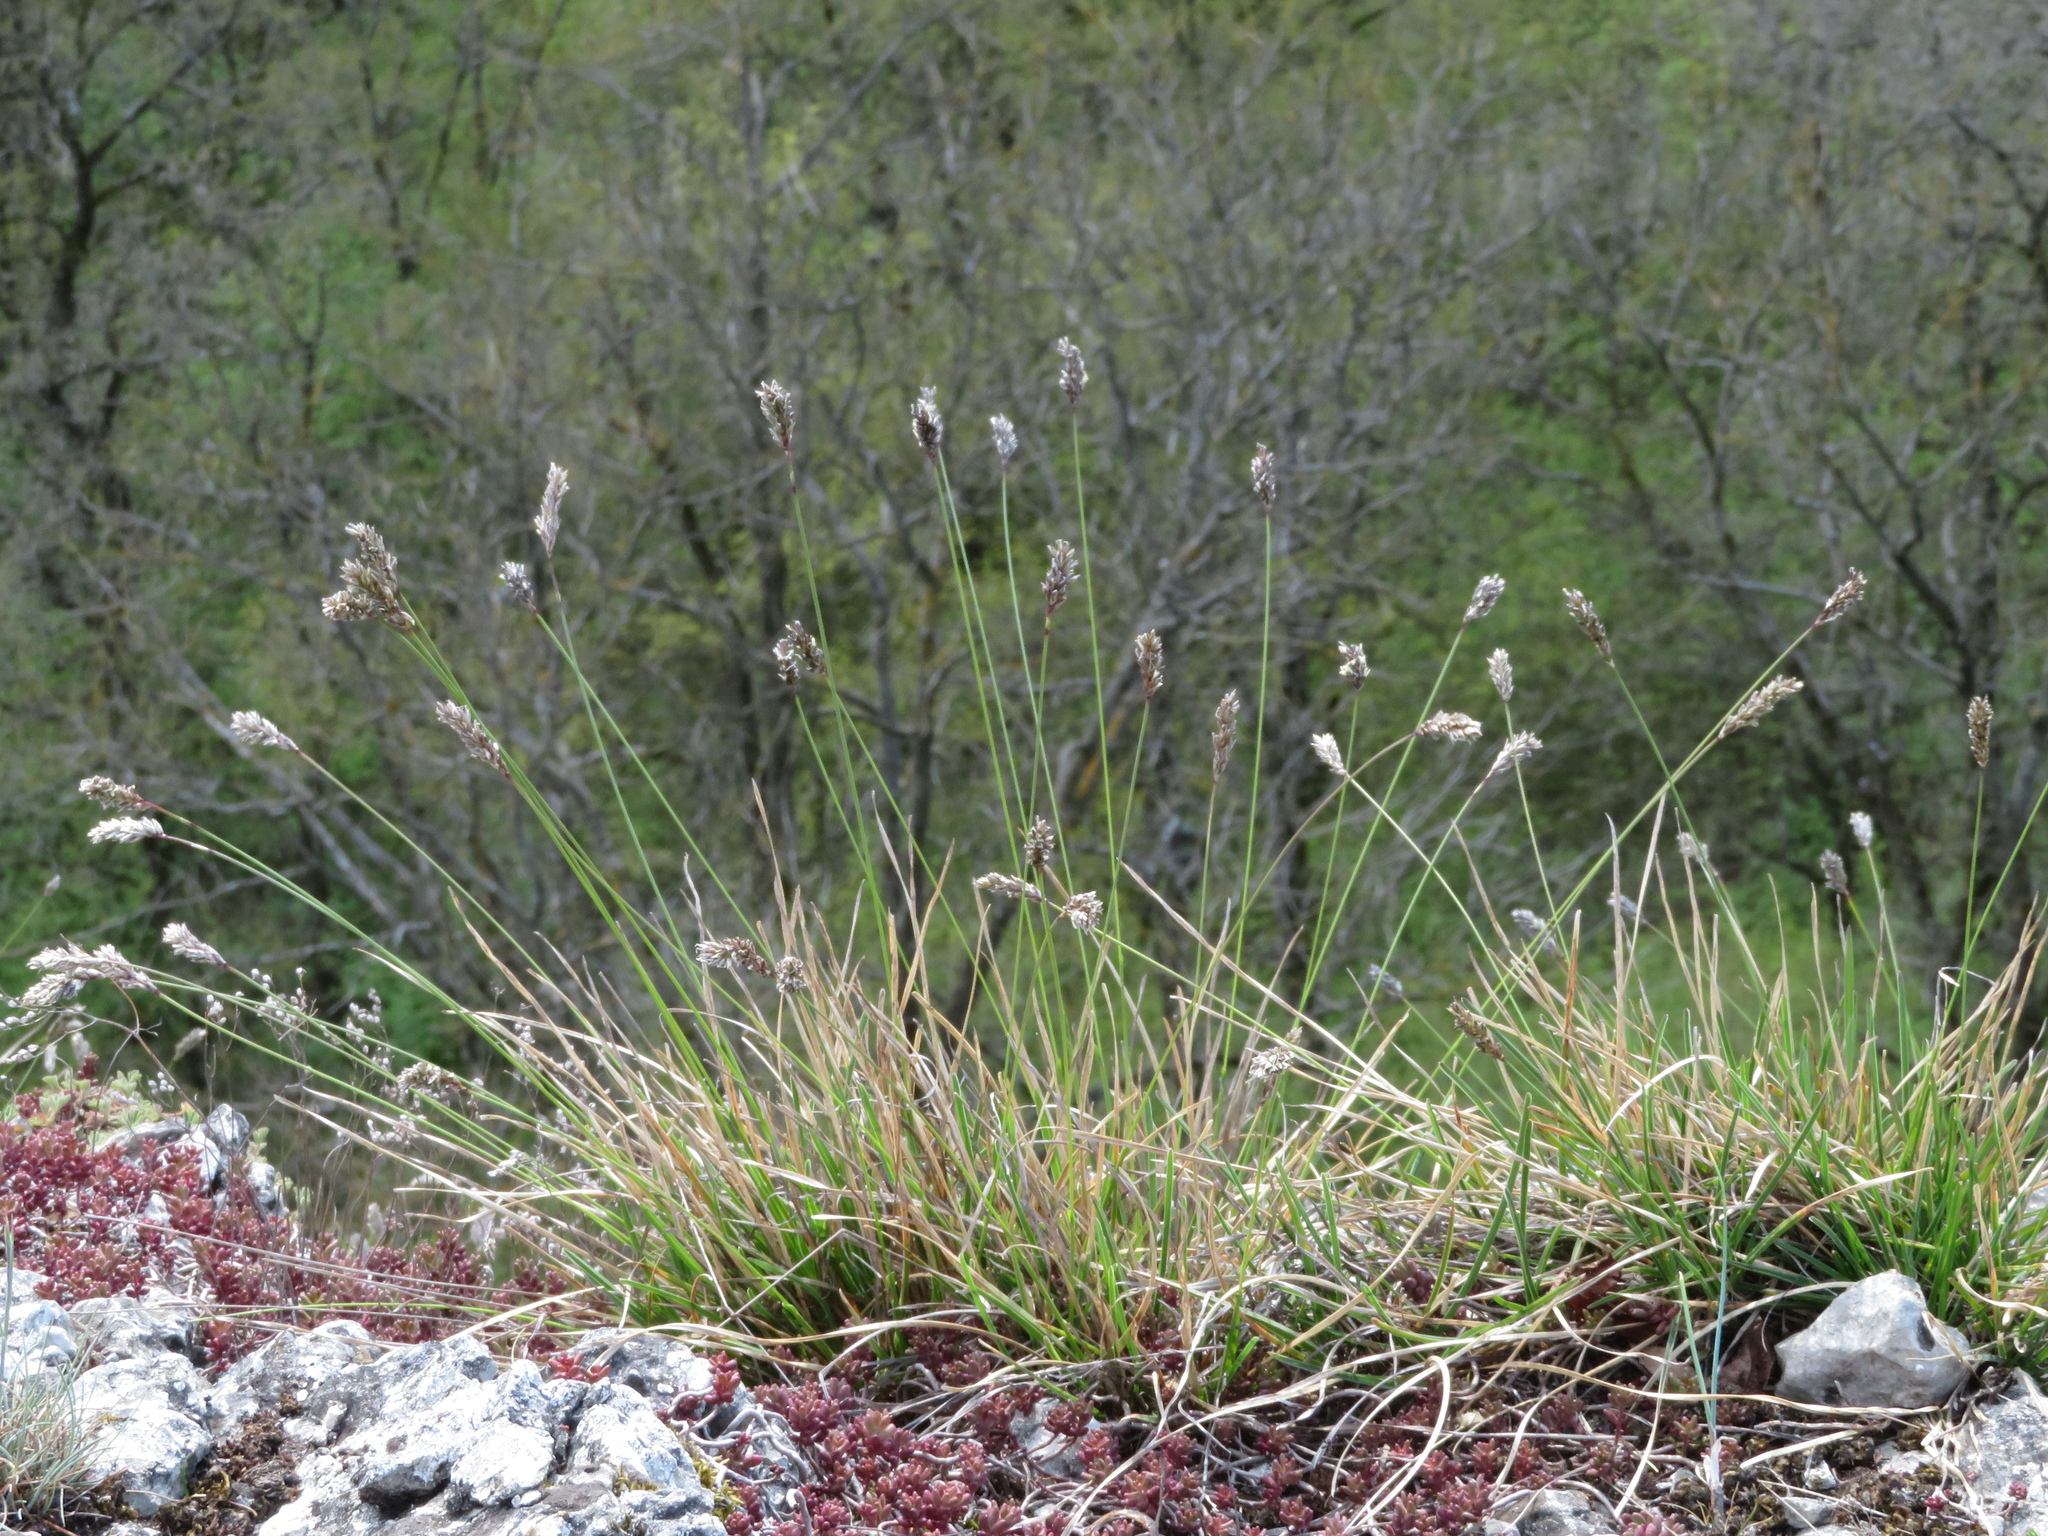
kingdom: Plantae
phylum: Tracheophyta
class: Liliopsida
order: Poales
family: Poaceae
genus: Sesleria
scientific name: Sesleria caerulea
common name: Blue moor-grass
